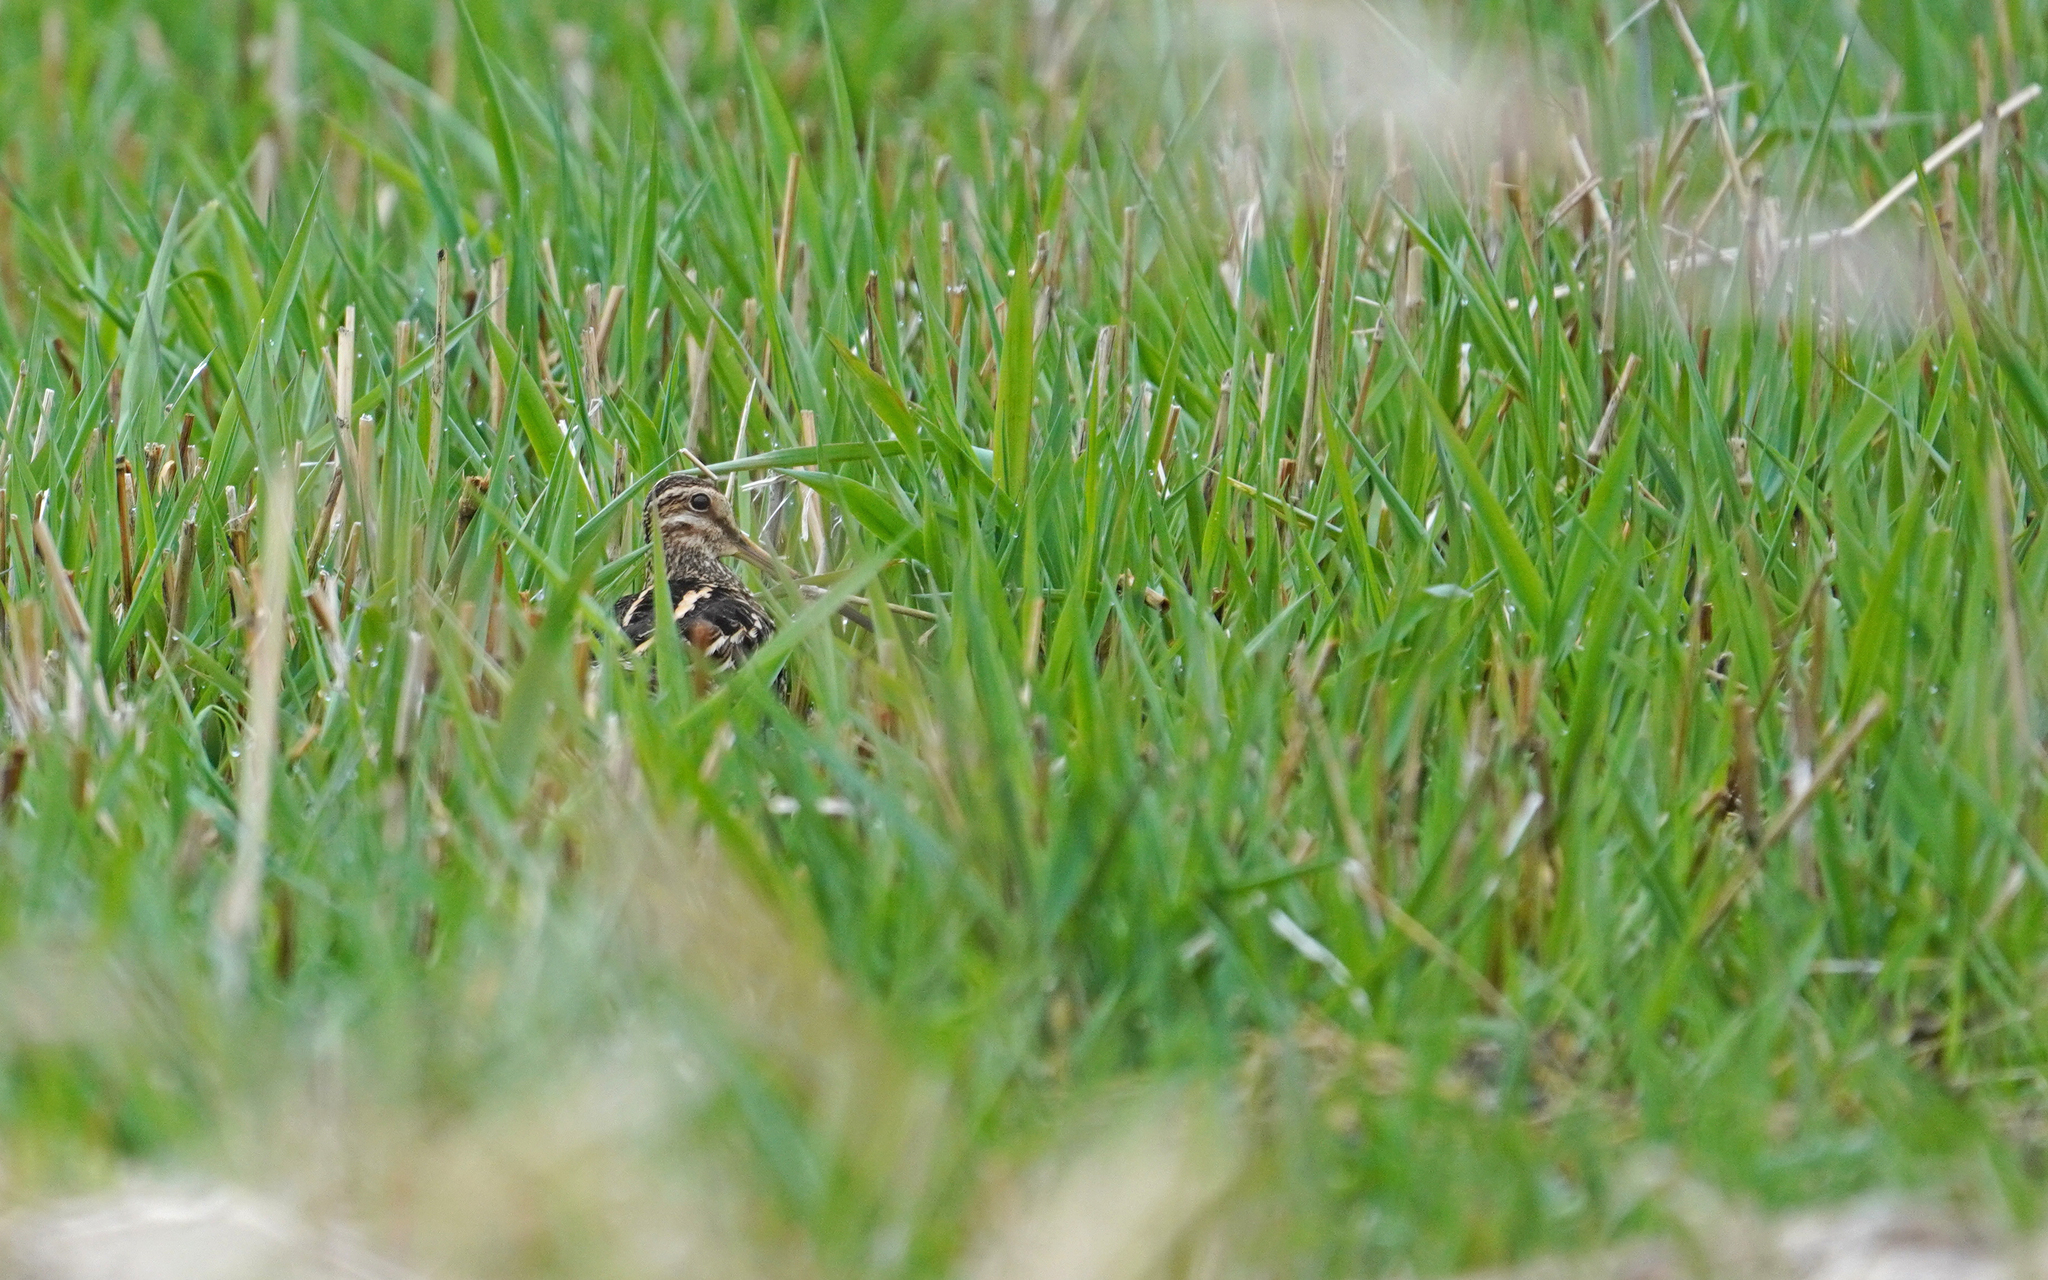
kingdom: Animalia
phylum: Chordata
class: Aves
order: Charadriiformes
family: Scolopacidae
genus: Gallinago
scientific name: Gallinago gallinago
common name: Common snipe
